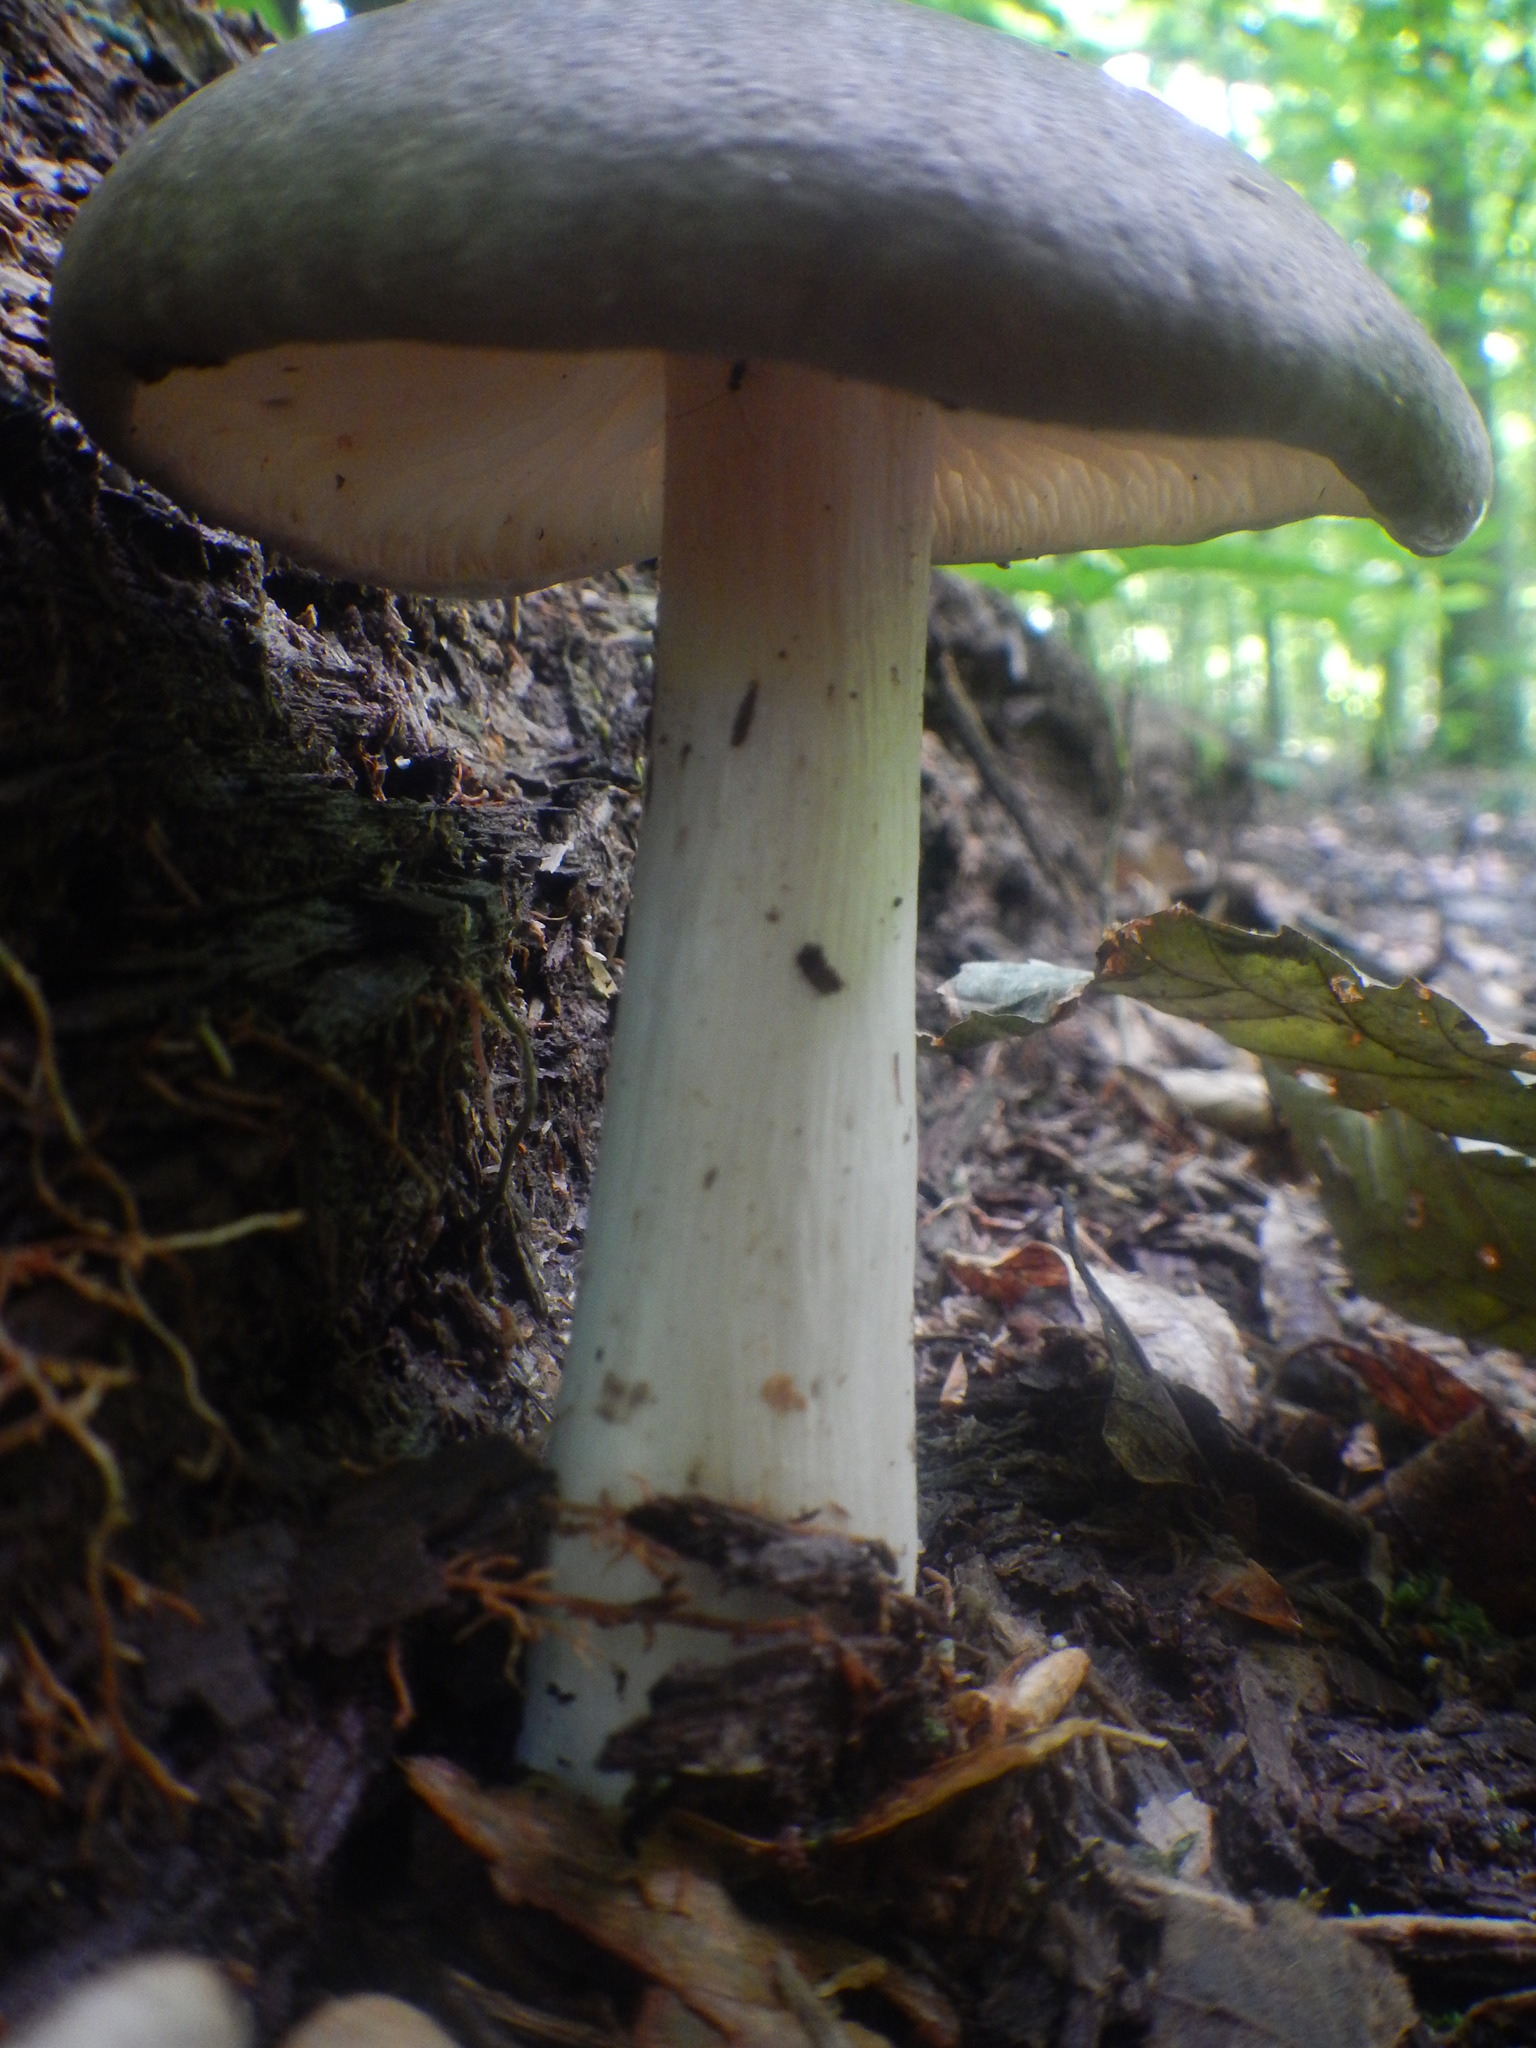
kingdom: Fungi
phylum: Basidiomycota
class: Agaricomycetes
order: Agaricales
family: Tricholomataceae
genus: Megacollybia
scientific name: Megacollybia rodmanii
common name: Eastern american platterful mushroom
